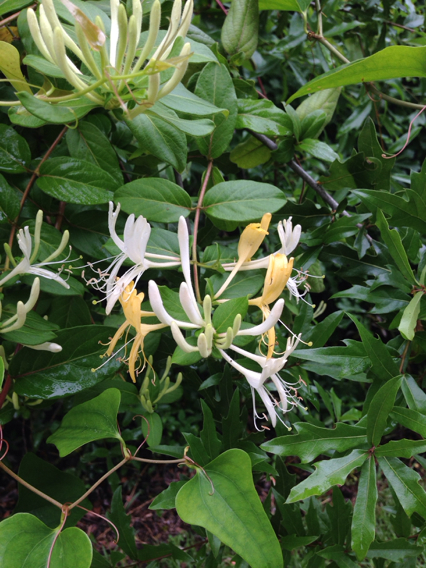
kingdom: Plantae
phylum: Tracheophyta
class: Magnoliopsida
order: Dipsacales
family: Caprifoliaceae
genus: Lonicera
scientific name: Lonicera japonica
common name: Japanese honeysuckle
